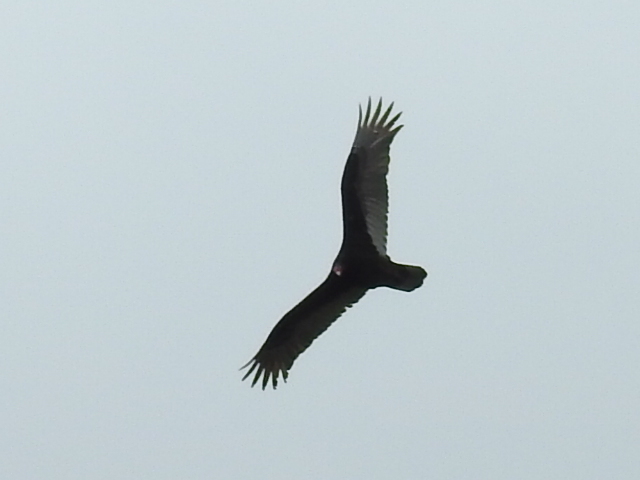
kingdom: Animalia
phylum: Chordata
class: Aves
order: Accipitriformes
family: Cathartidae
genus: Cathartes
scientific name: Cathartes aura
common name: Turkey vulture
